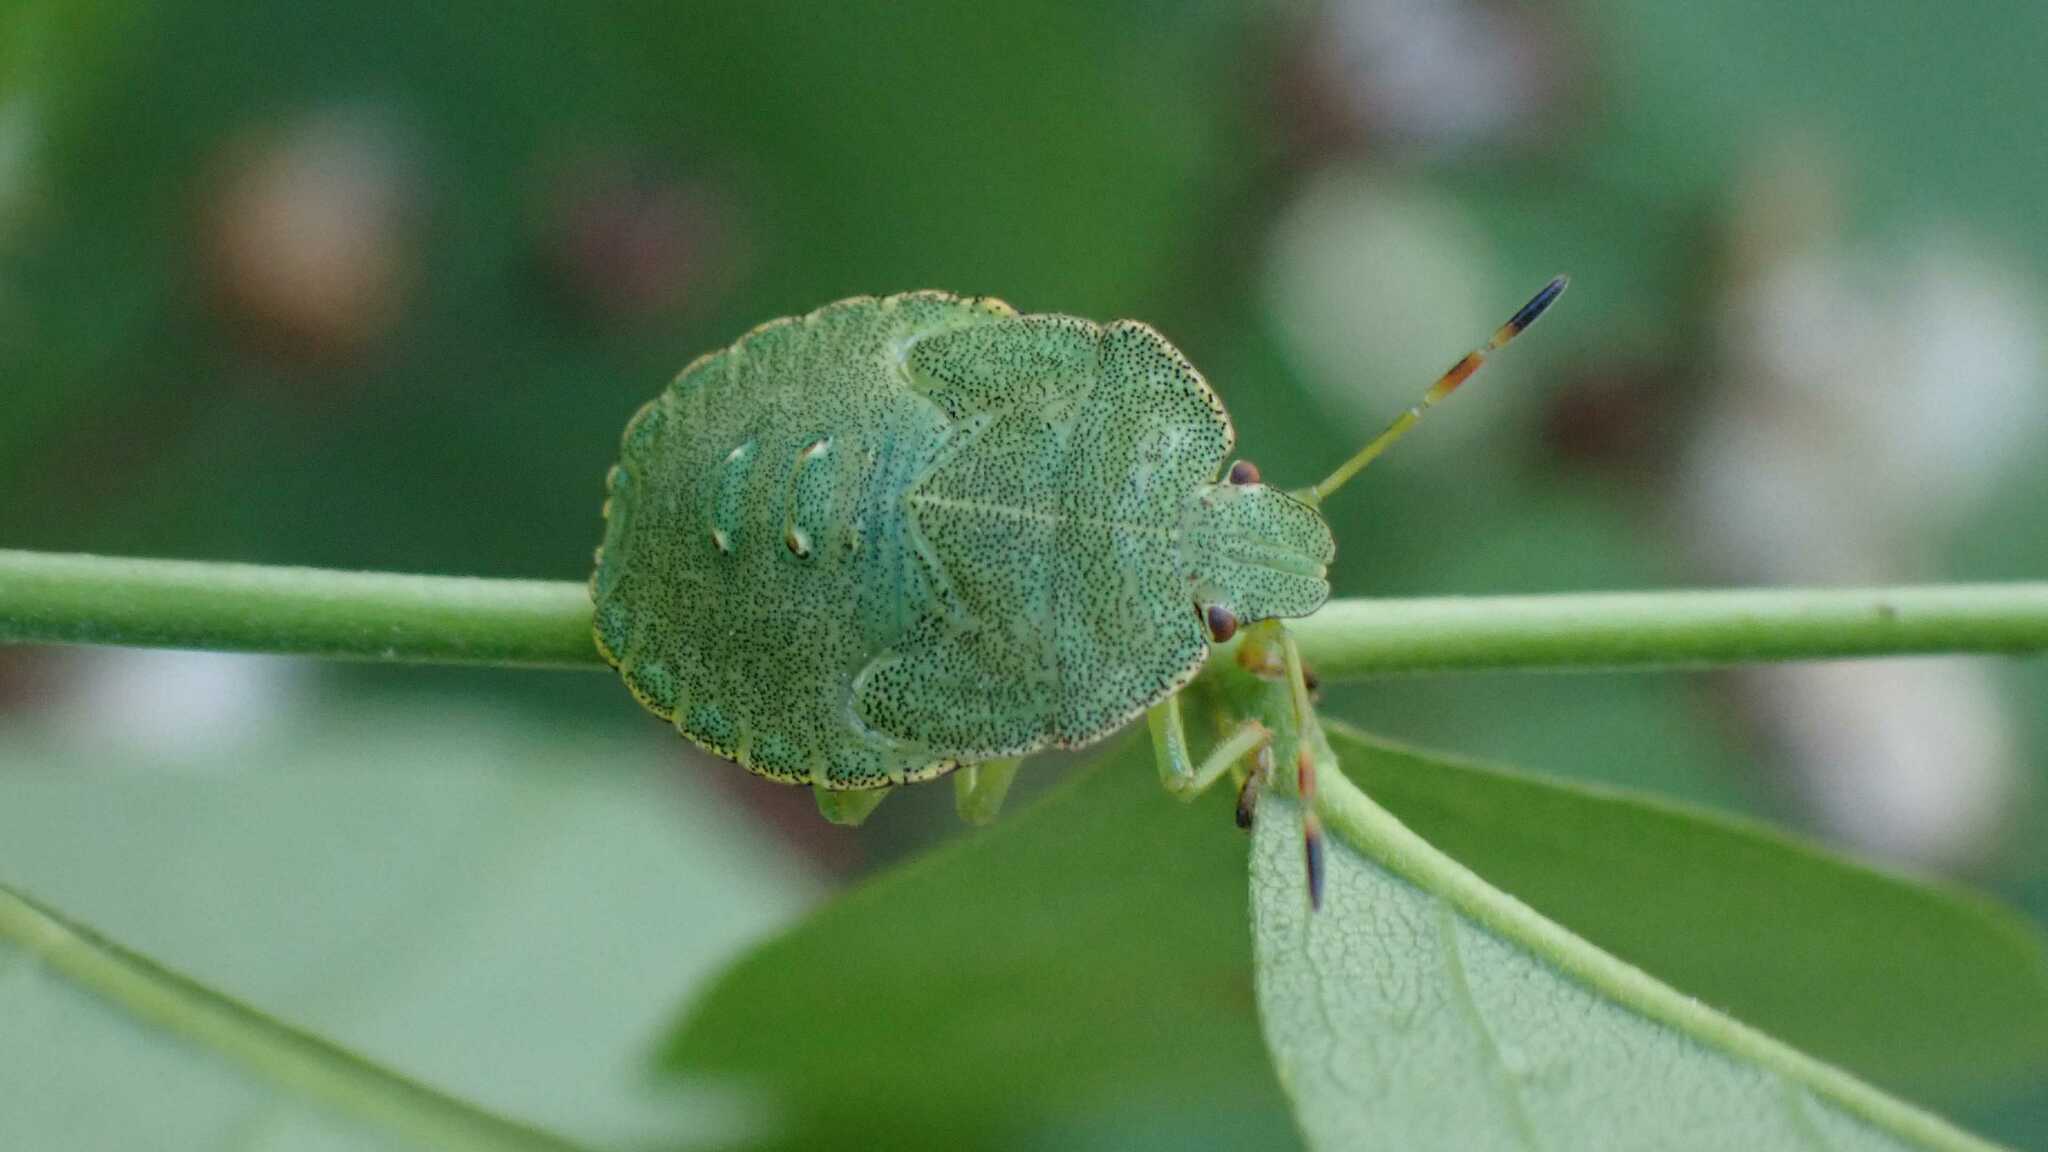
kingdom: Animalia
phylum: Arthropoda
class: Insecta
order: Hemiptera
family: Pentatomidae
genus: Palomena
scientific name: Palomena prasina
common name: Green shieldbug
